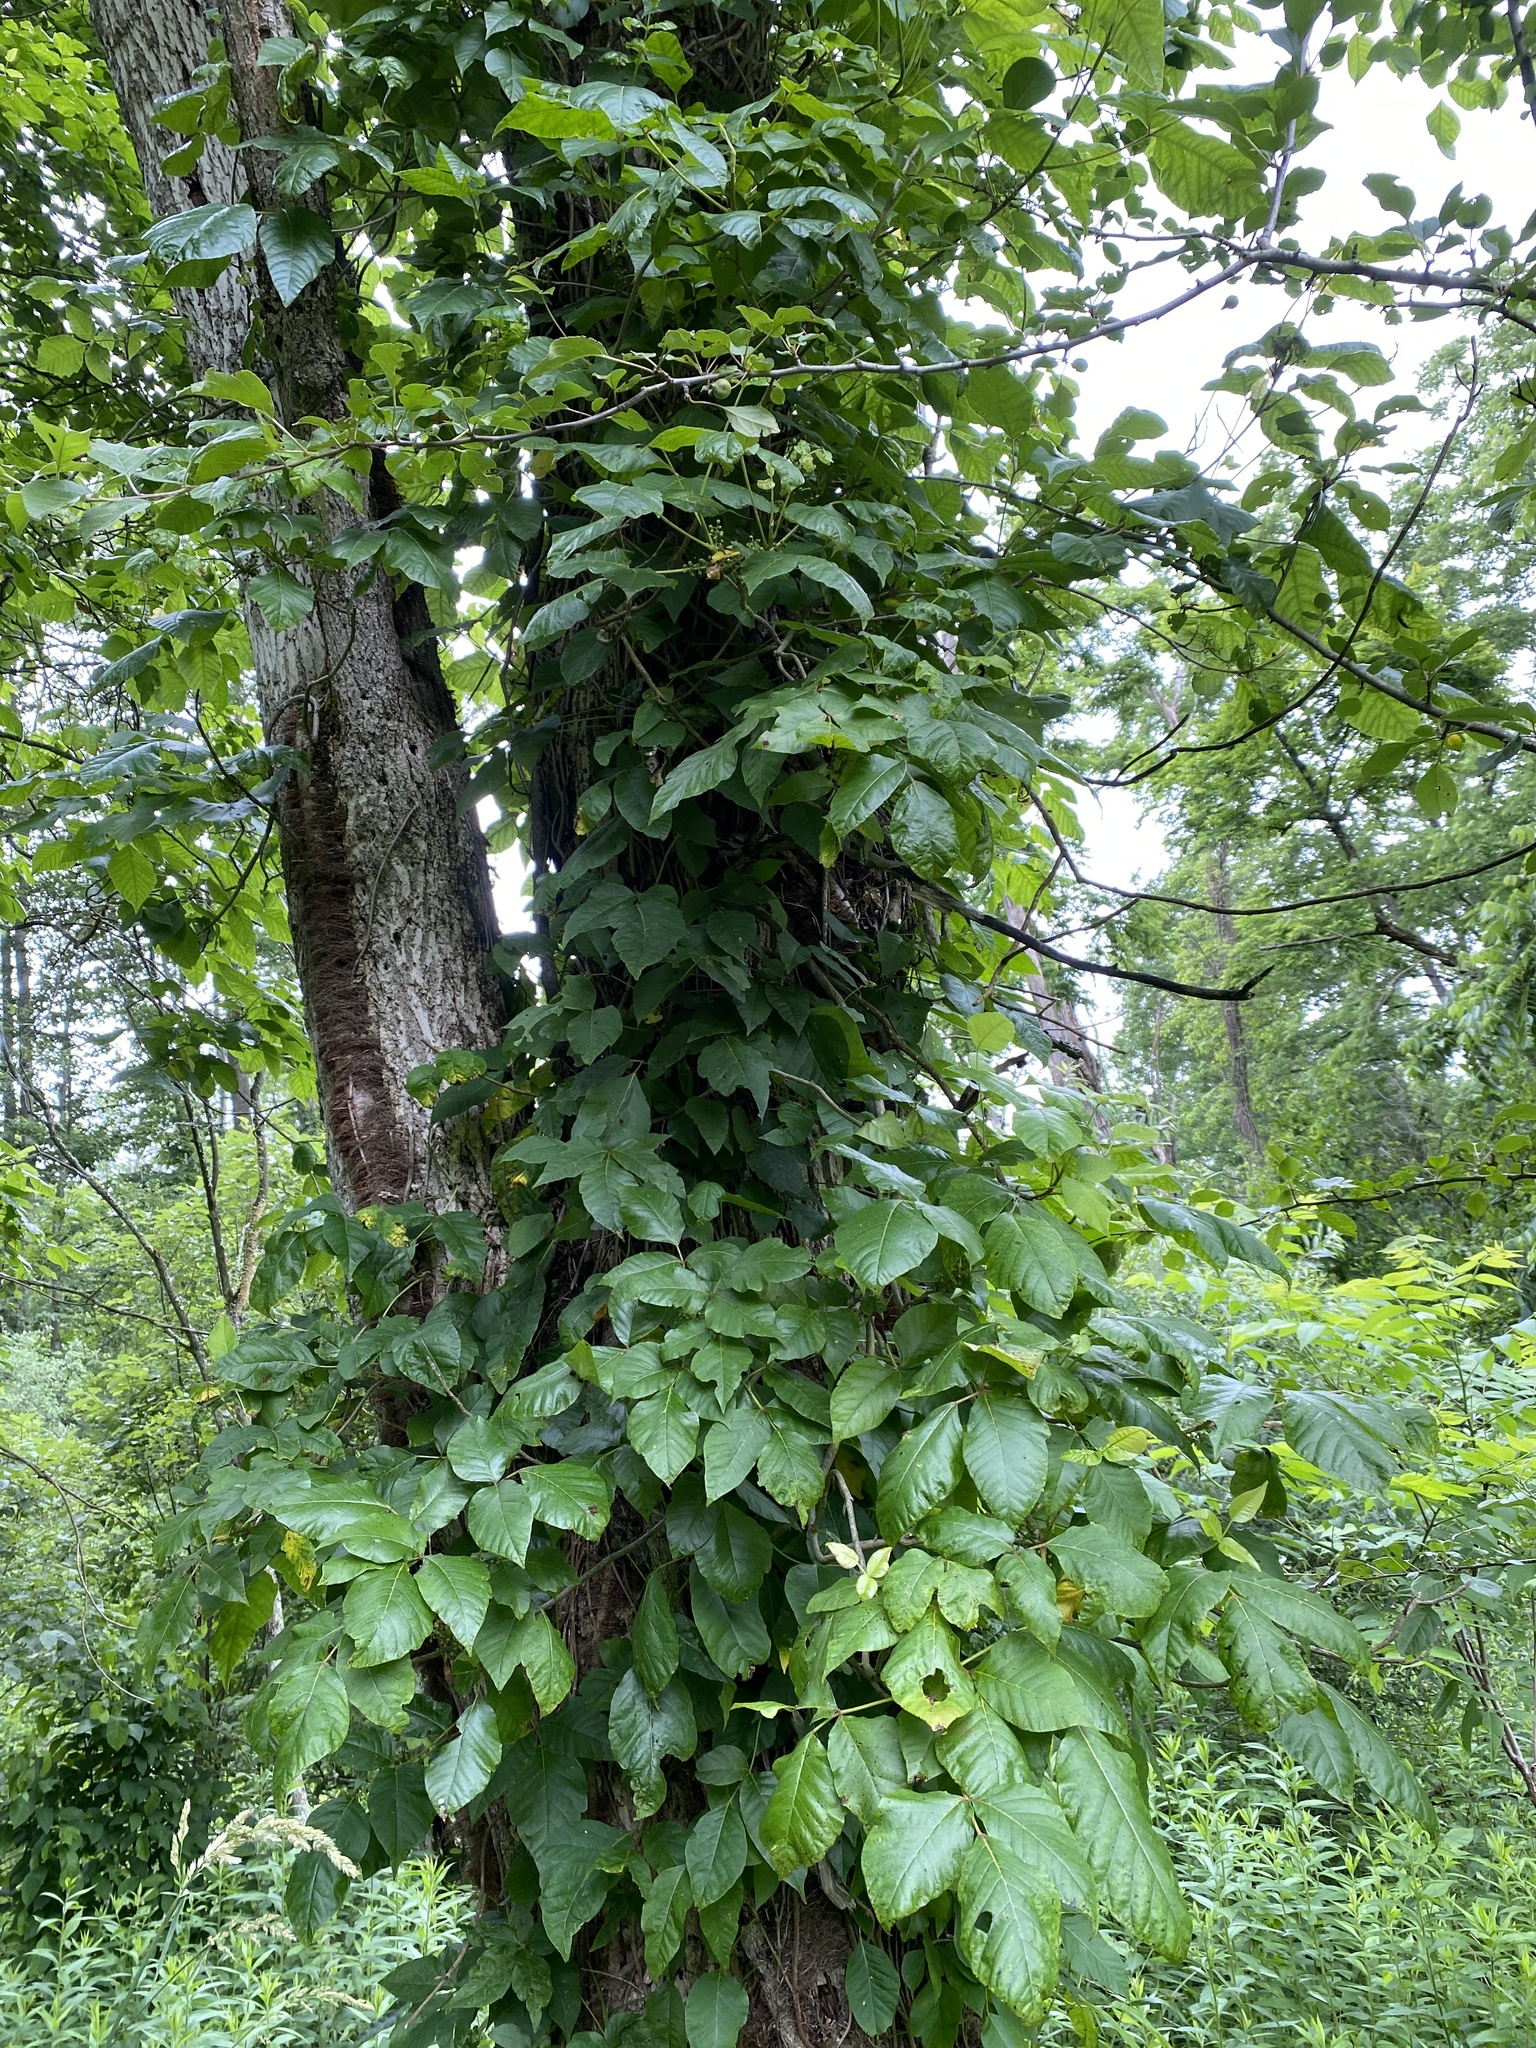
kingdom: Plantae
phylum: Tracheophyta
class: Magnoliopsida
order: Sapindales
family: Anacardiaceae
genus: Toxicodendron
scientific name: Toxicodendron radicans
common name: Poison ivy
